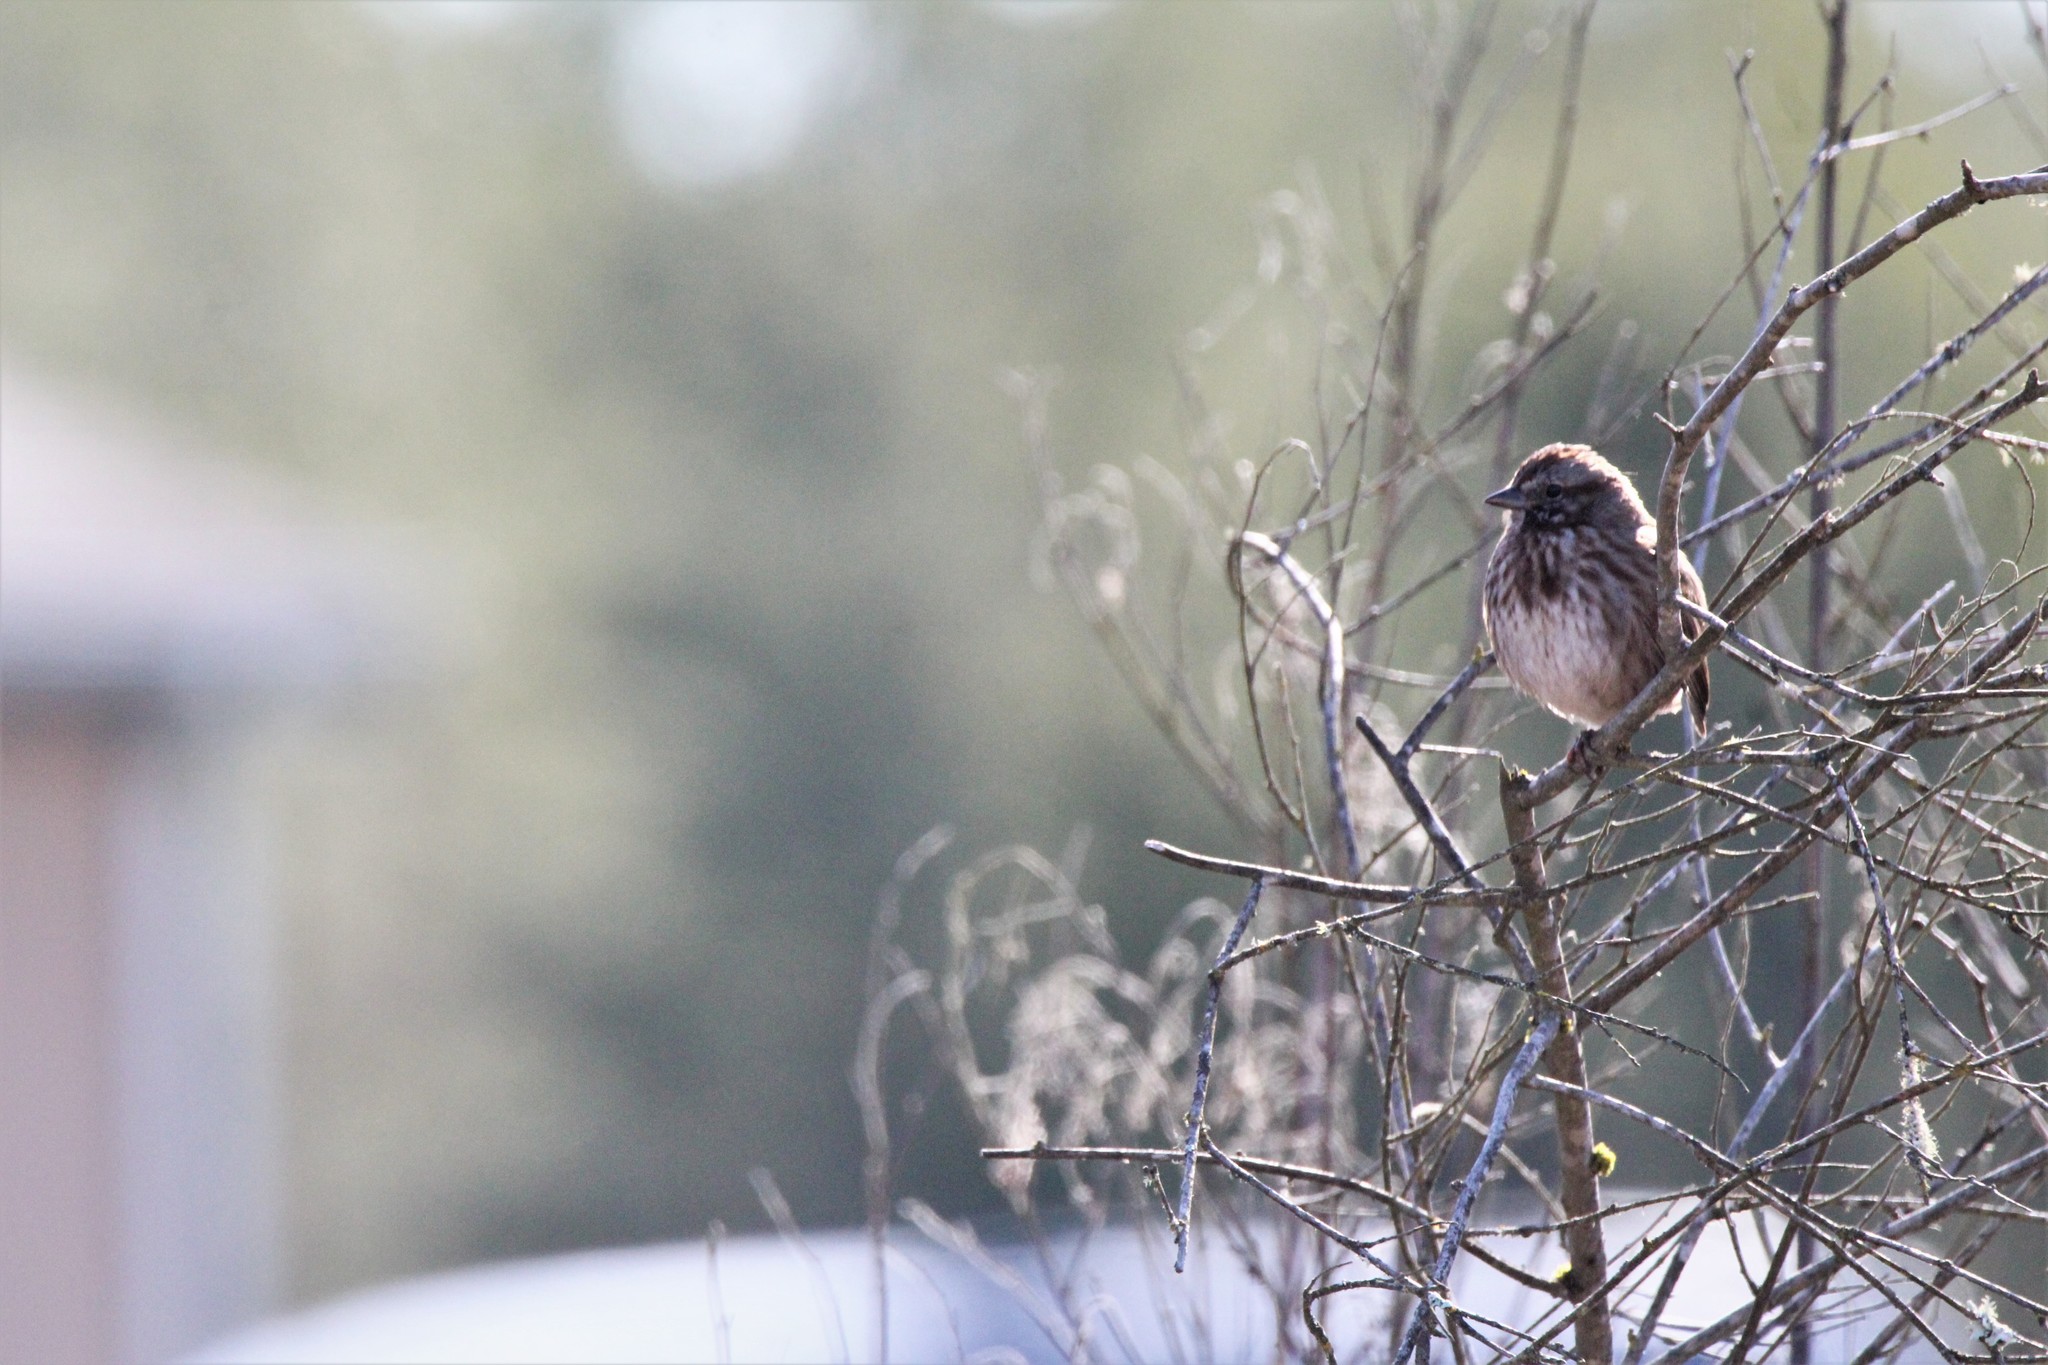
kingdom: Animalia
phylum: Chordata
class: Aves
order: Passeriformes
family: Passerellidae
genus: Melospiza
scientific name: Melospiza melodia
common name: Song sparrow
